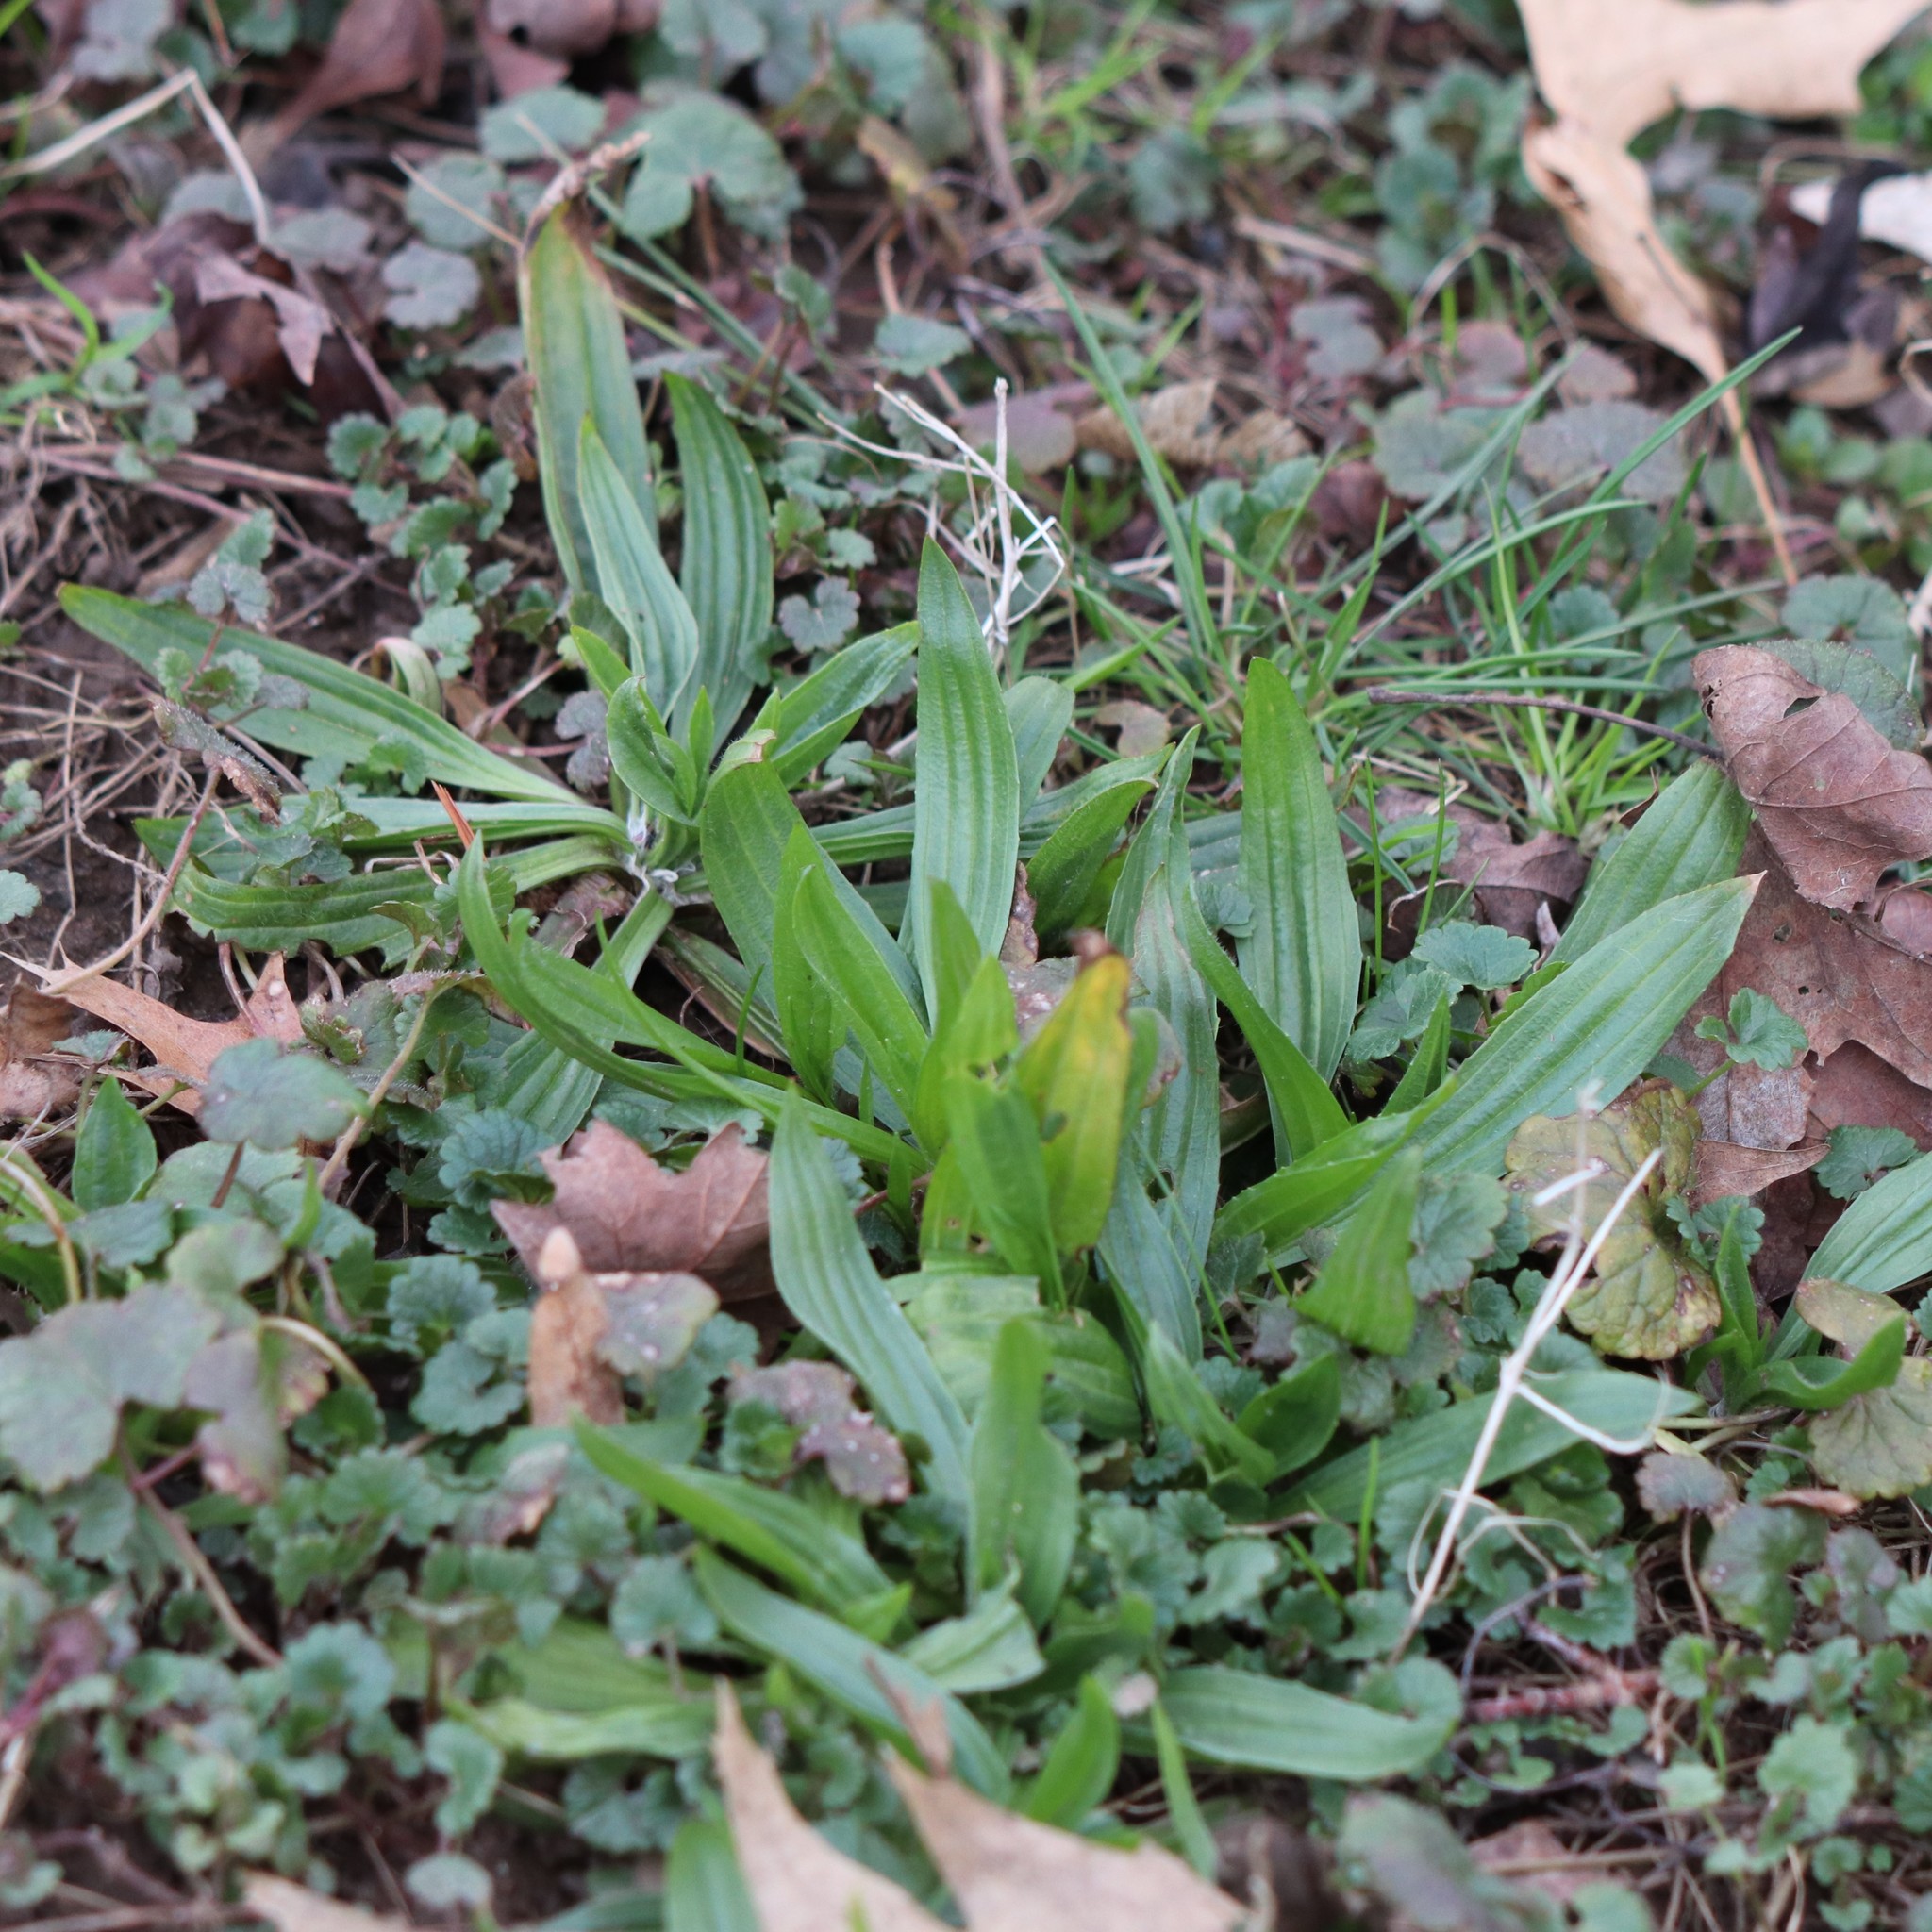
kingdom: Plantae
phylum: Tracheophyta
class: Magnoliopsida
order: Lamiales
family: Plantaginaceae
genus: Plantago
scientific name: Plantago lanceolata
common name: Ribwort plantain
